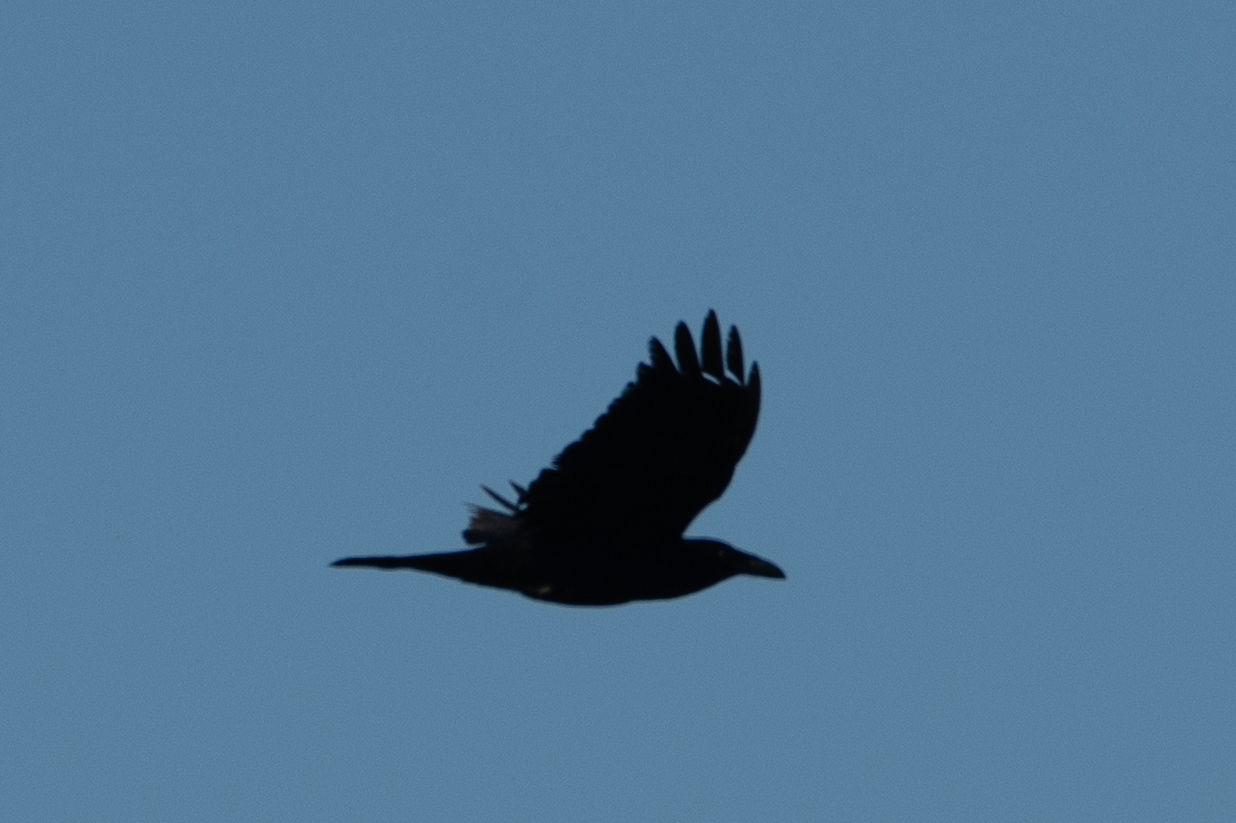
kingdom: Animalia
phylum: Chordata
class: Aves
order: Passeriformes
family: Corvidae
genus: Corvus
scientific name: Corvus corax
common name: Common raven
